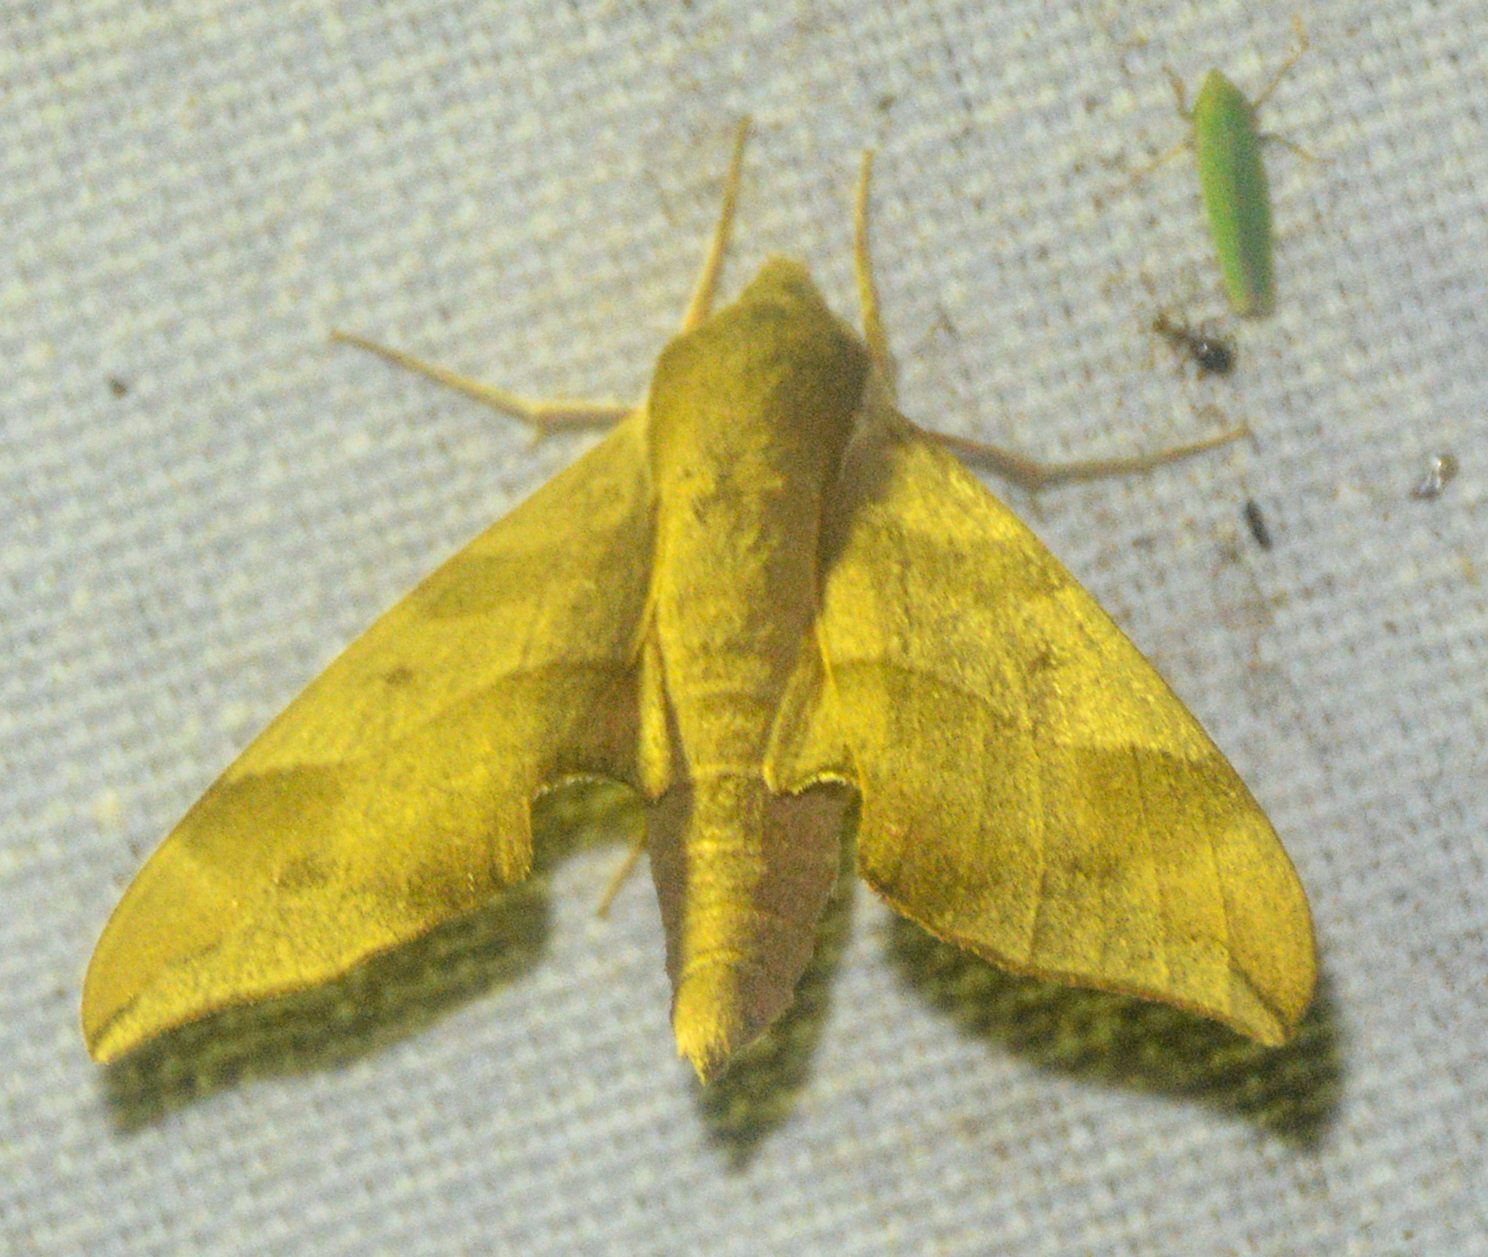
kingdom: Animalia
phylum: Arthropoda
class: Insecta
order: Lepidoptera
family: Sphingidae
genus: Darapsa
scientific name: Darapsa myron
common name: Hog sphinx
